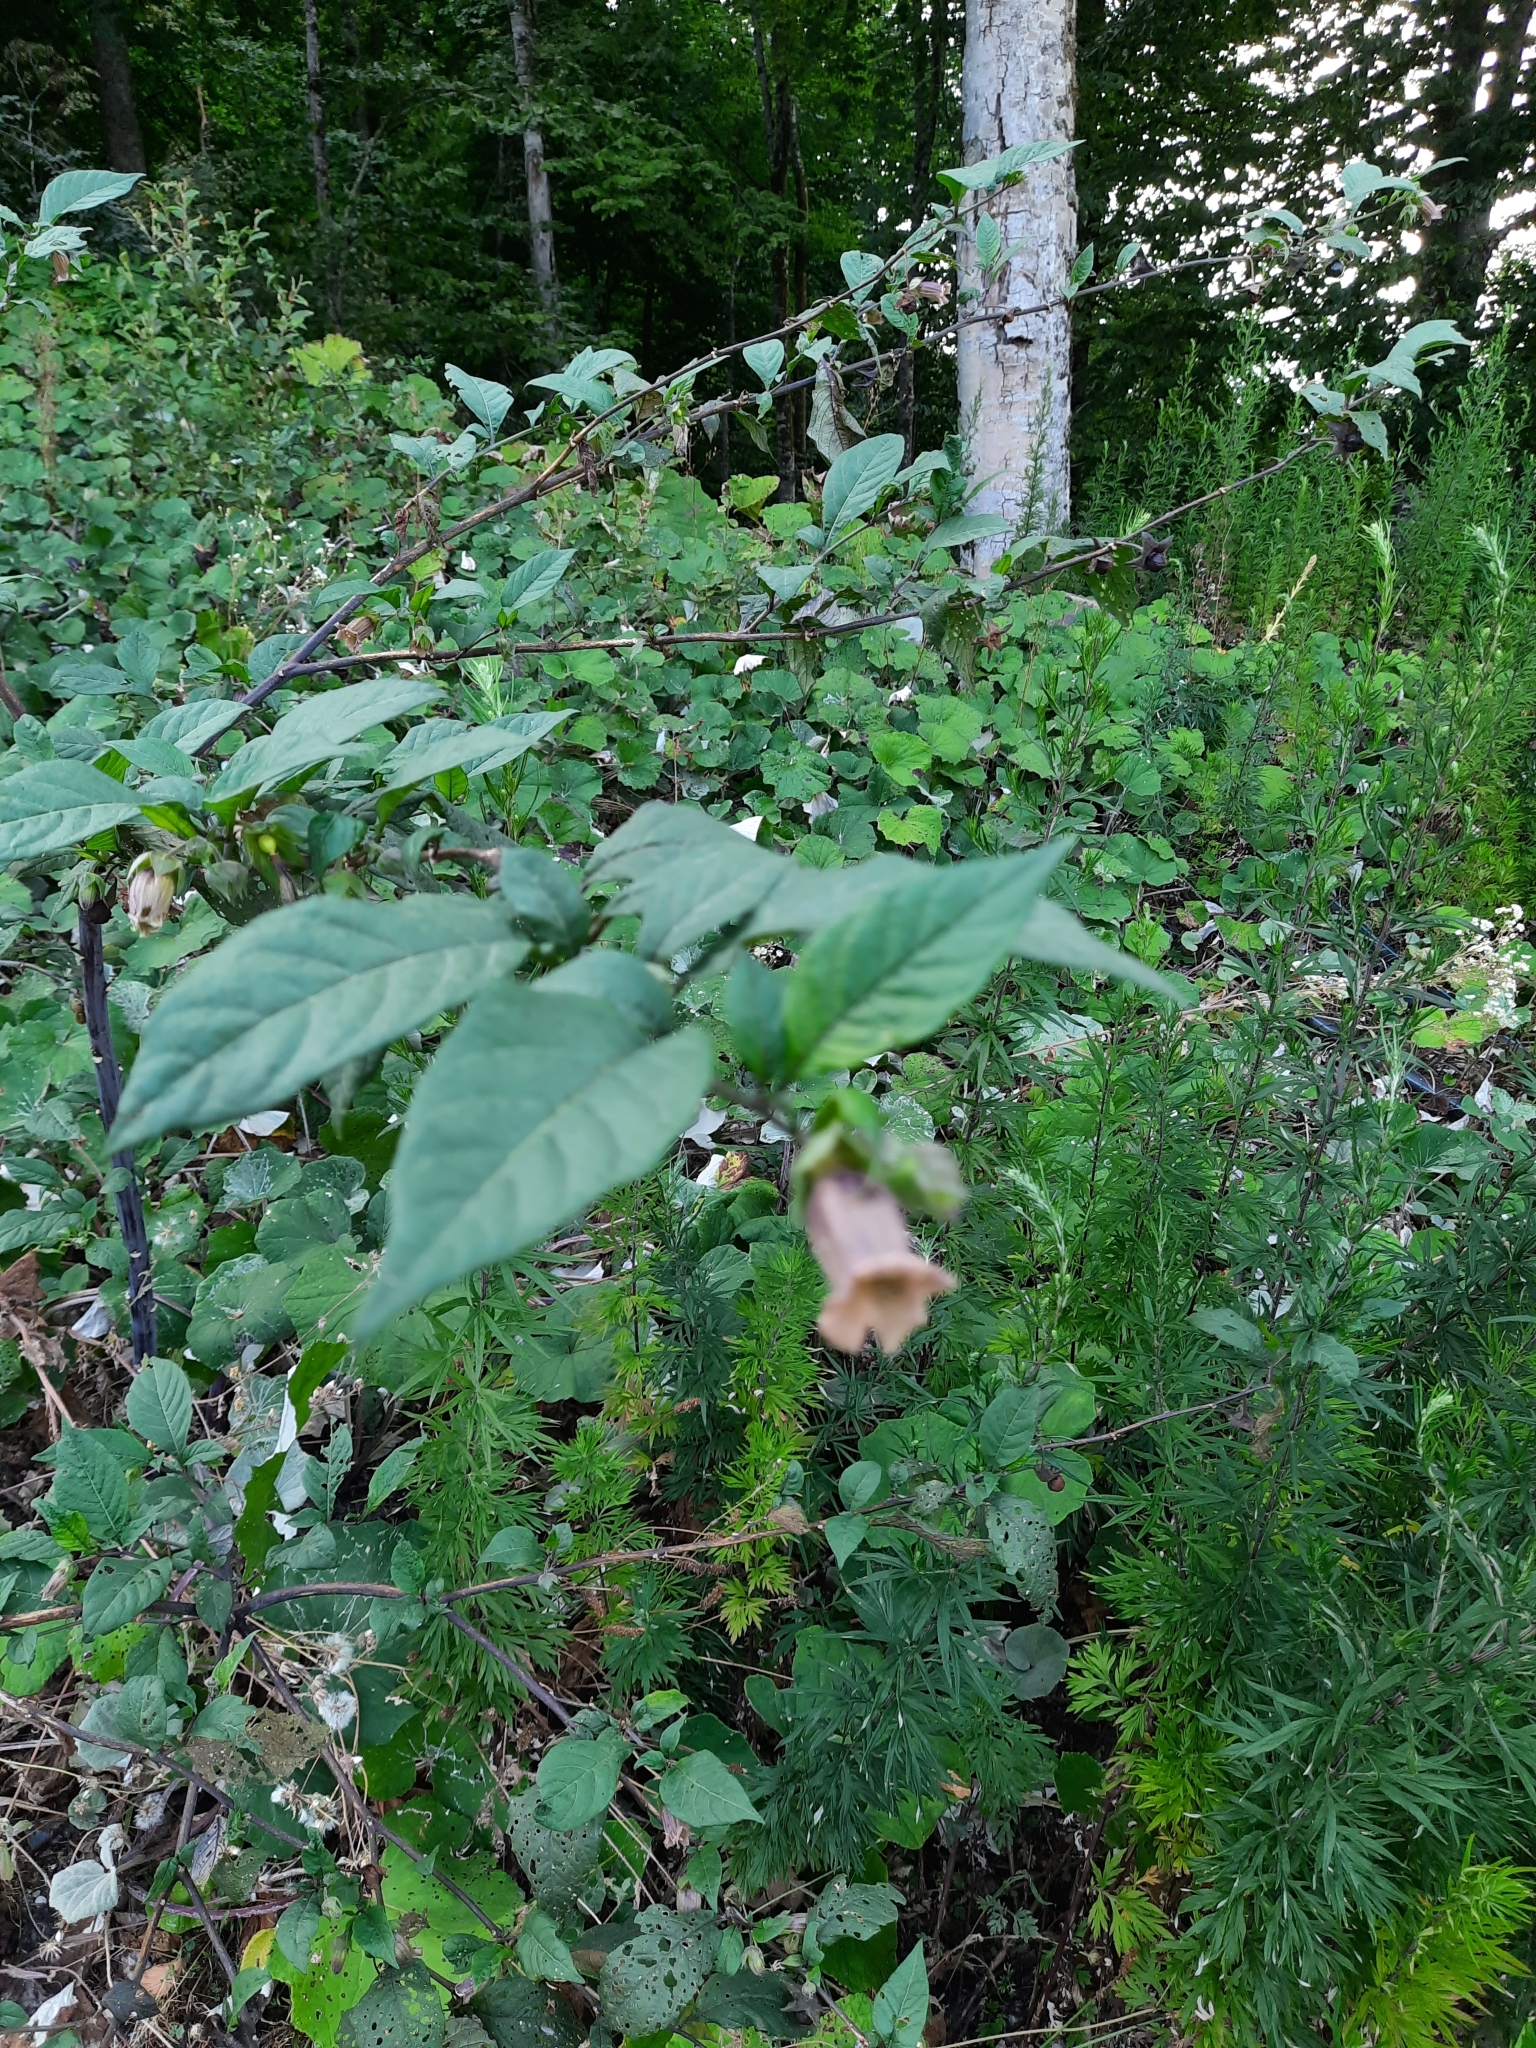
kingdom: Plantae
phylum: Tracheophyta
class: Magnoliopsida
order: Solanales
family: Solanaceae
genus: Atropa
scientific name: Atropa belladonna
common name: Deadly nightshade
